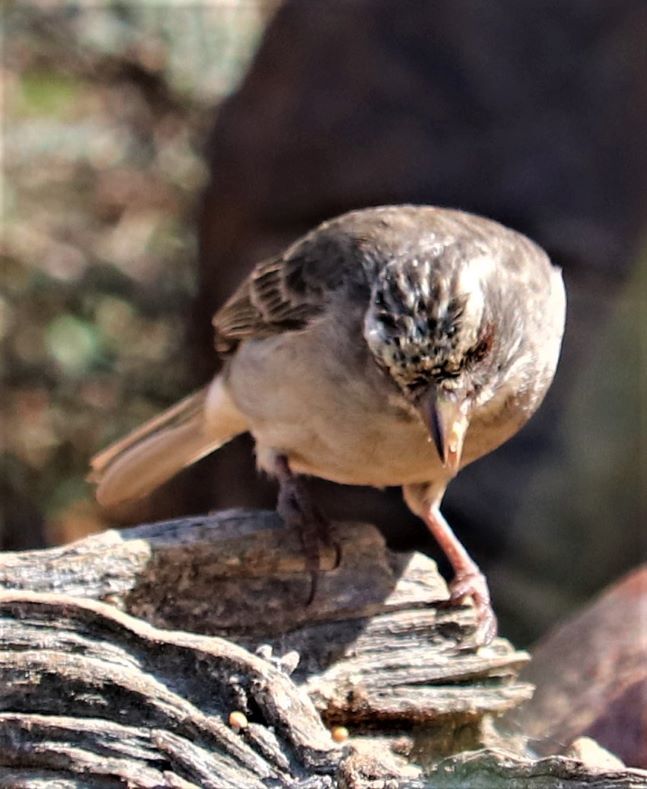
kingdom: Animalia
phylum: Chordata
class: Aves
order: Passeriformes
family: Fringillidae
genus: Crithagra
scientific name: Crithagra gularis
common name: Streaky-headed seedeater
